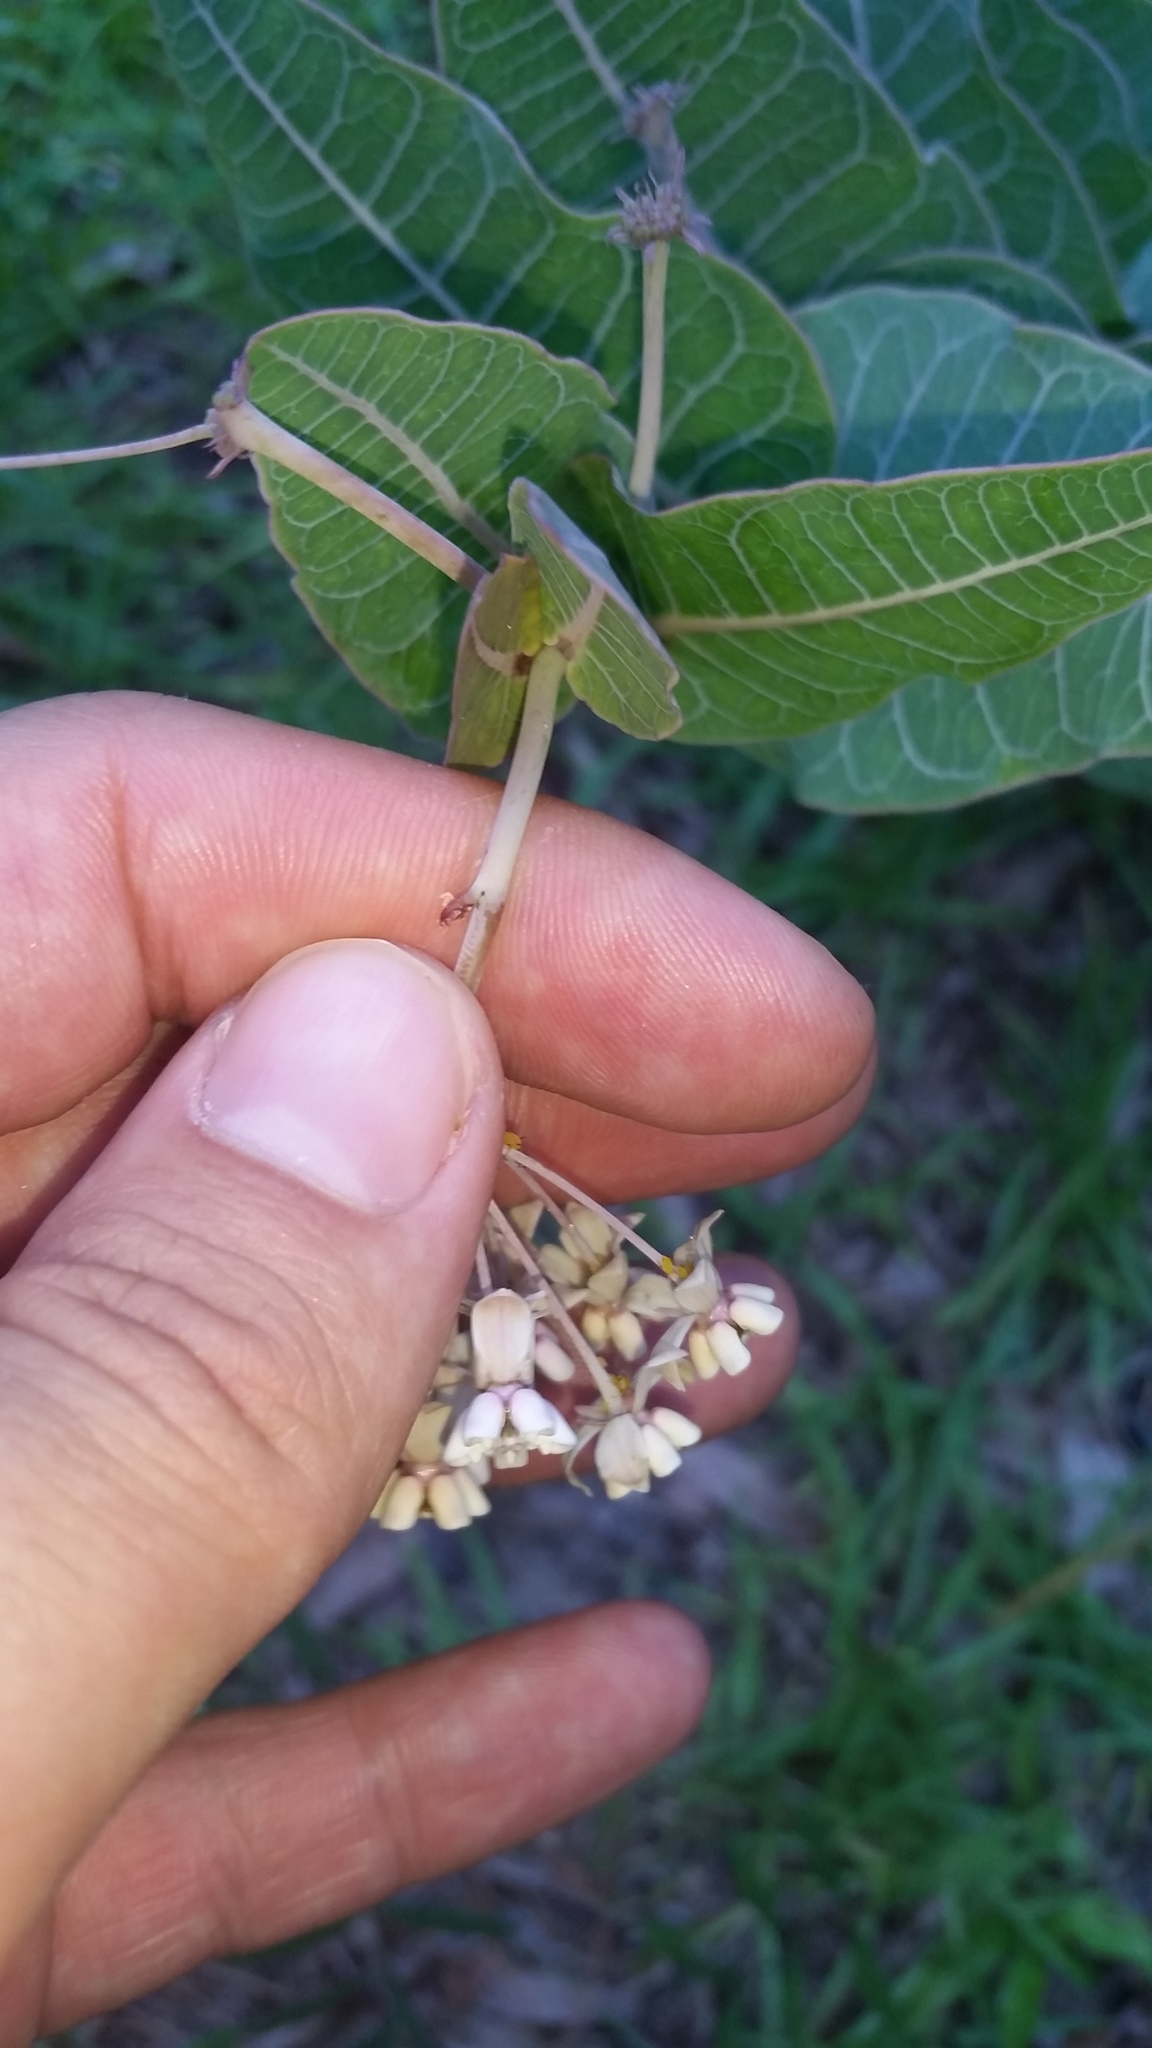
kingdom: Plantae
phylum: Tracheophyta
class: Magnoliopsida
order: Gentianales
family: Apocynaceae
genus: Asclepias
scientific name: Asclepias humistrata
